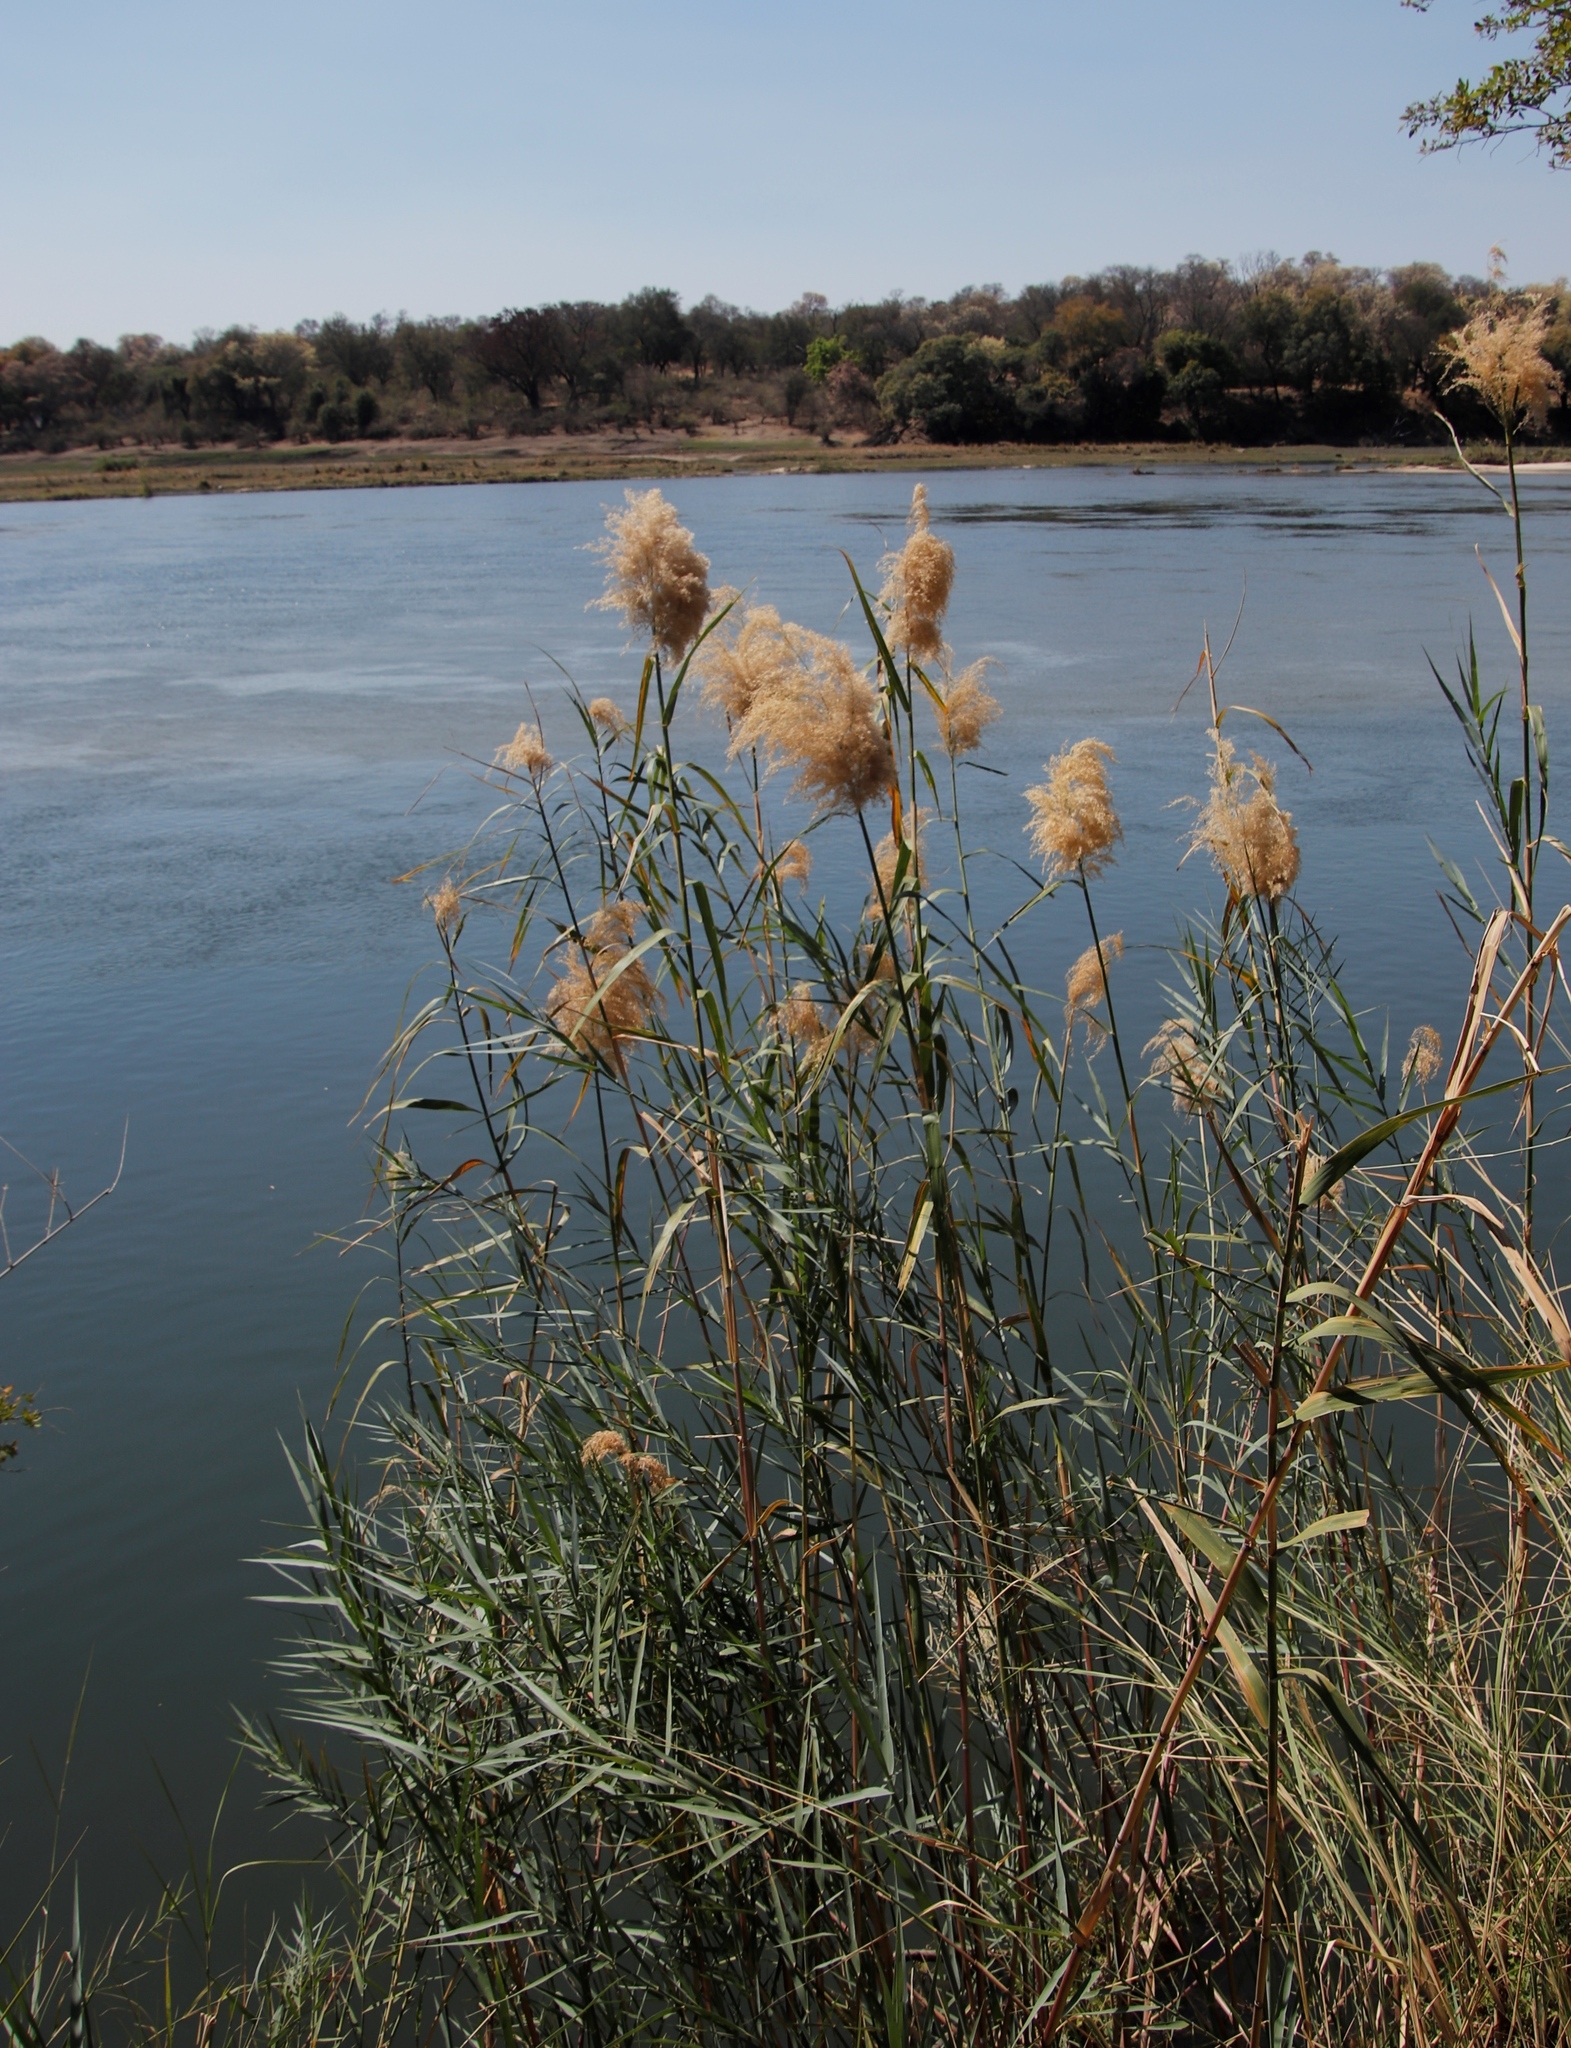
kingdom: Plantae
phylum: Tracheophyta
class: Liliopsida
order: Poales
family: Poaceae
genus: Phragmites
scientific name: Phragmites australis
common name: Common reed
